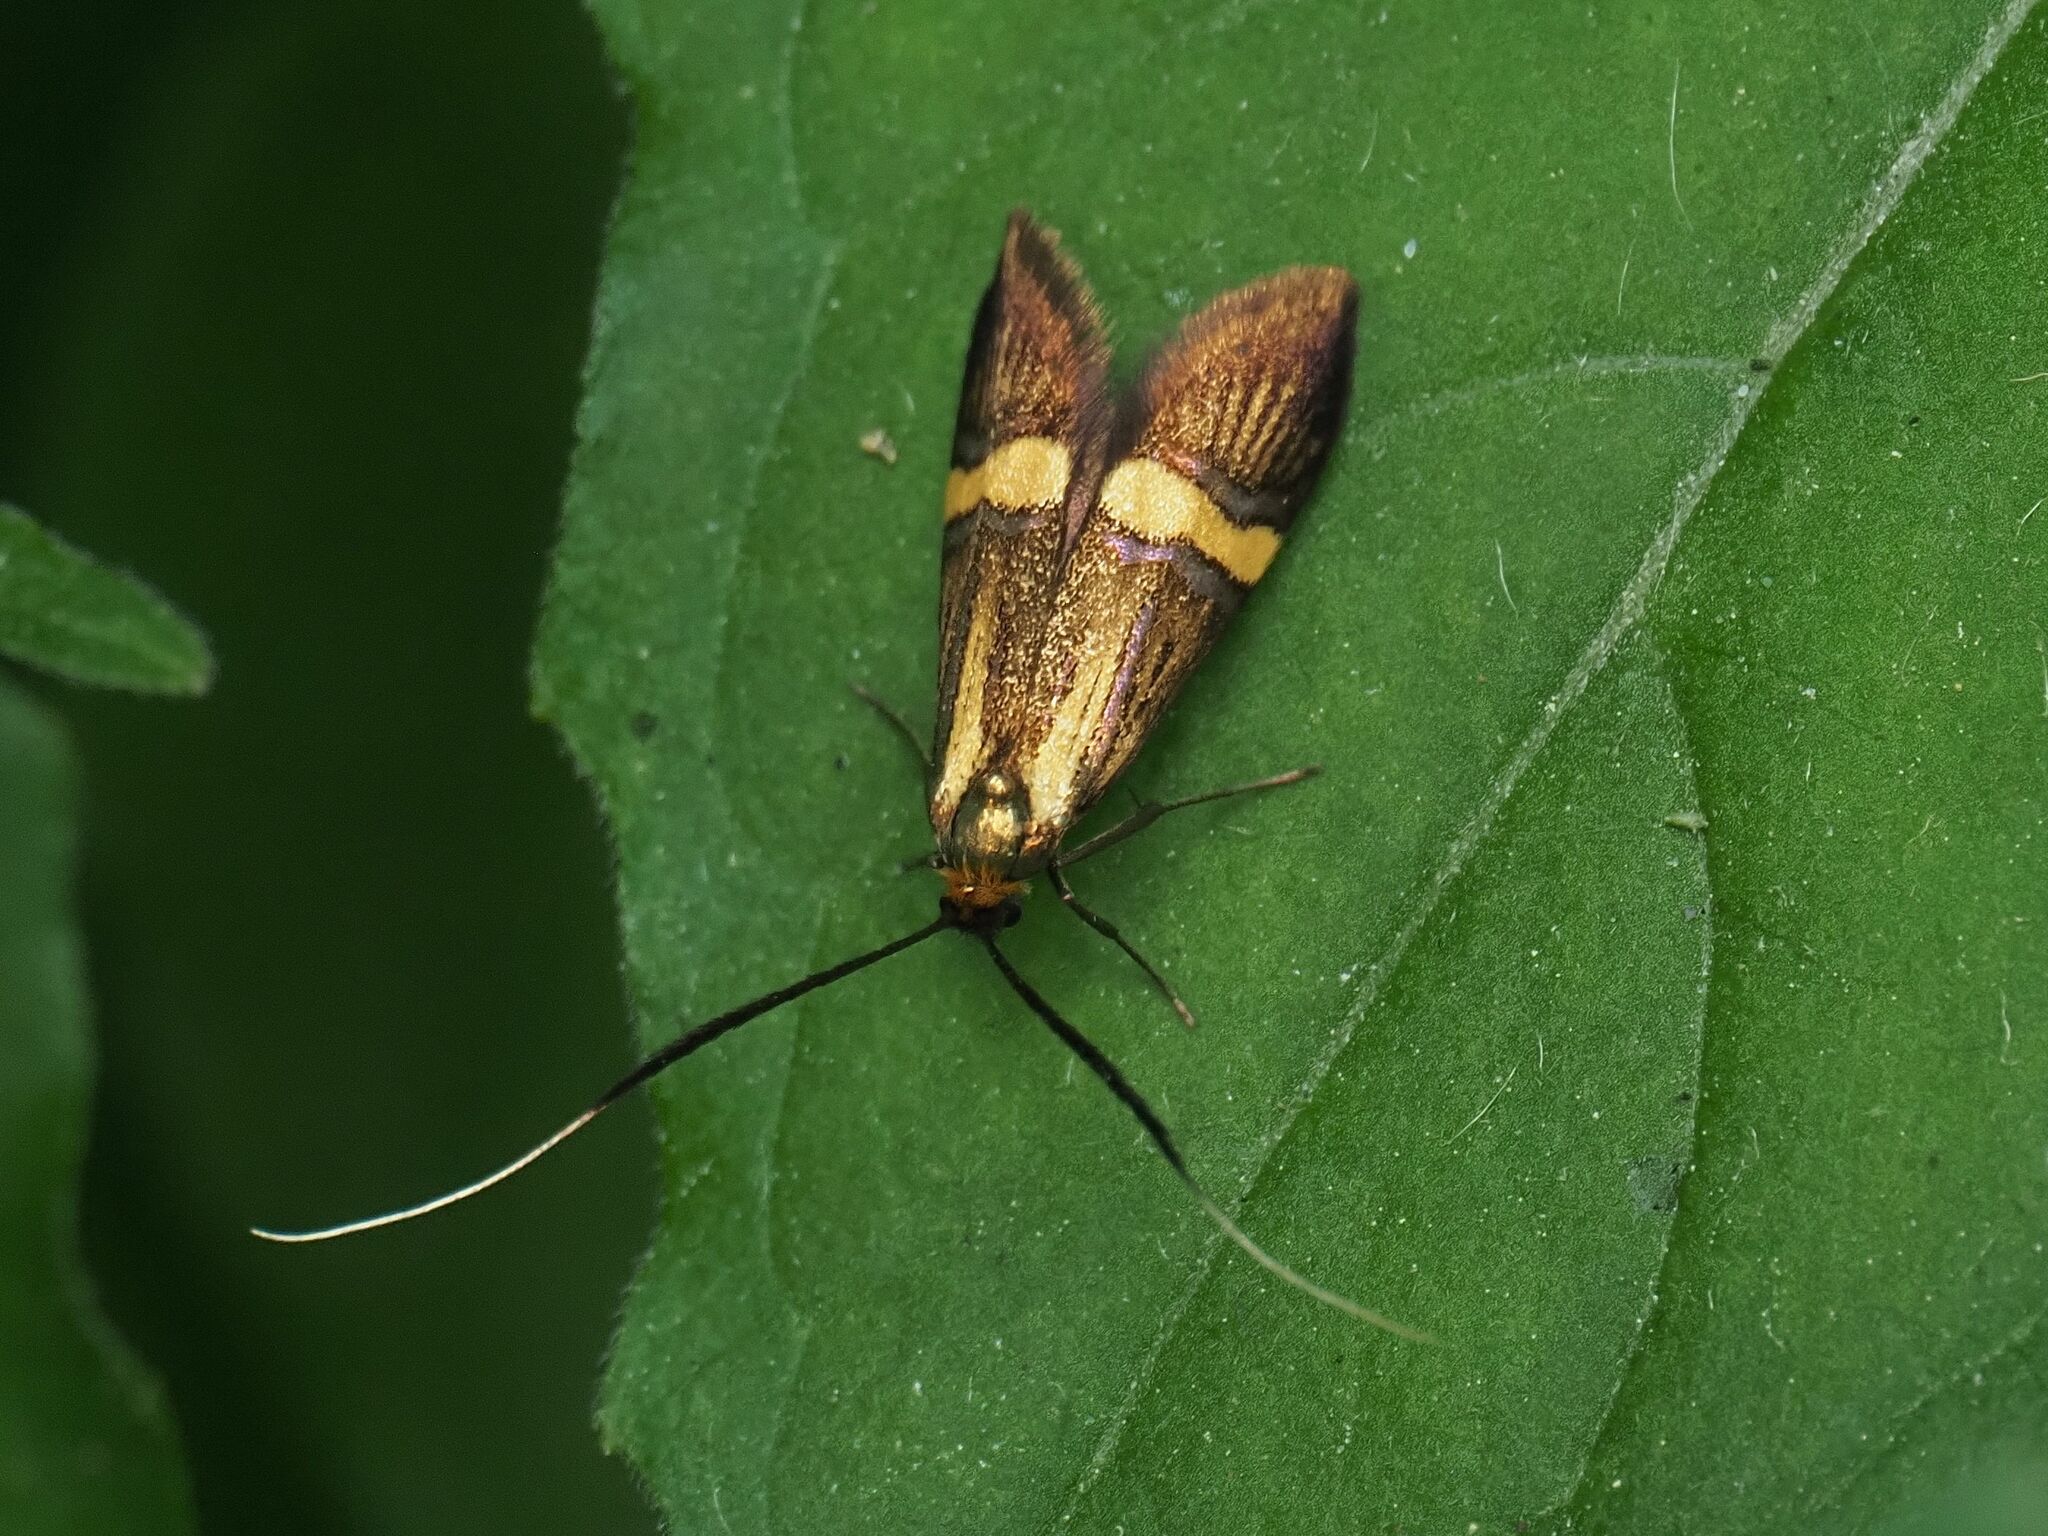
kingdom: Animalia
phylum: Arthropoda
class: Insecta
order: Lepidoptera
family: Adelidae
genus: Nemophora
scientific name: Nemophora
